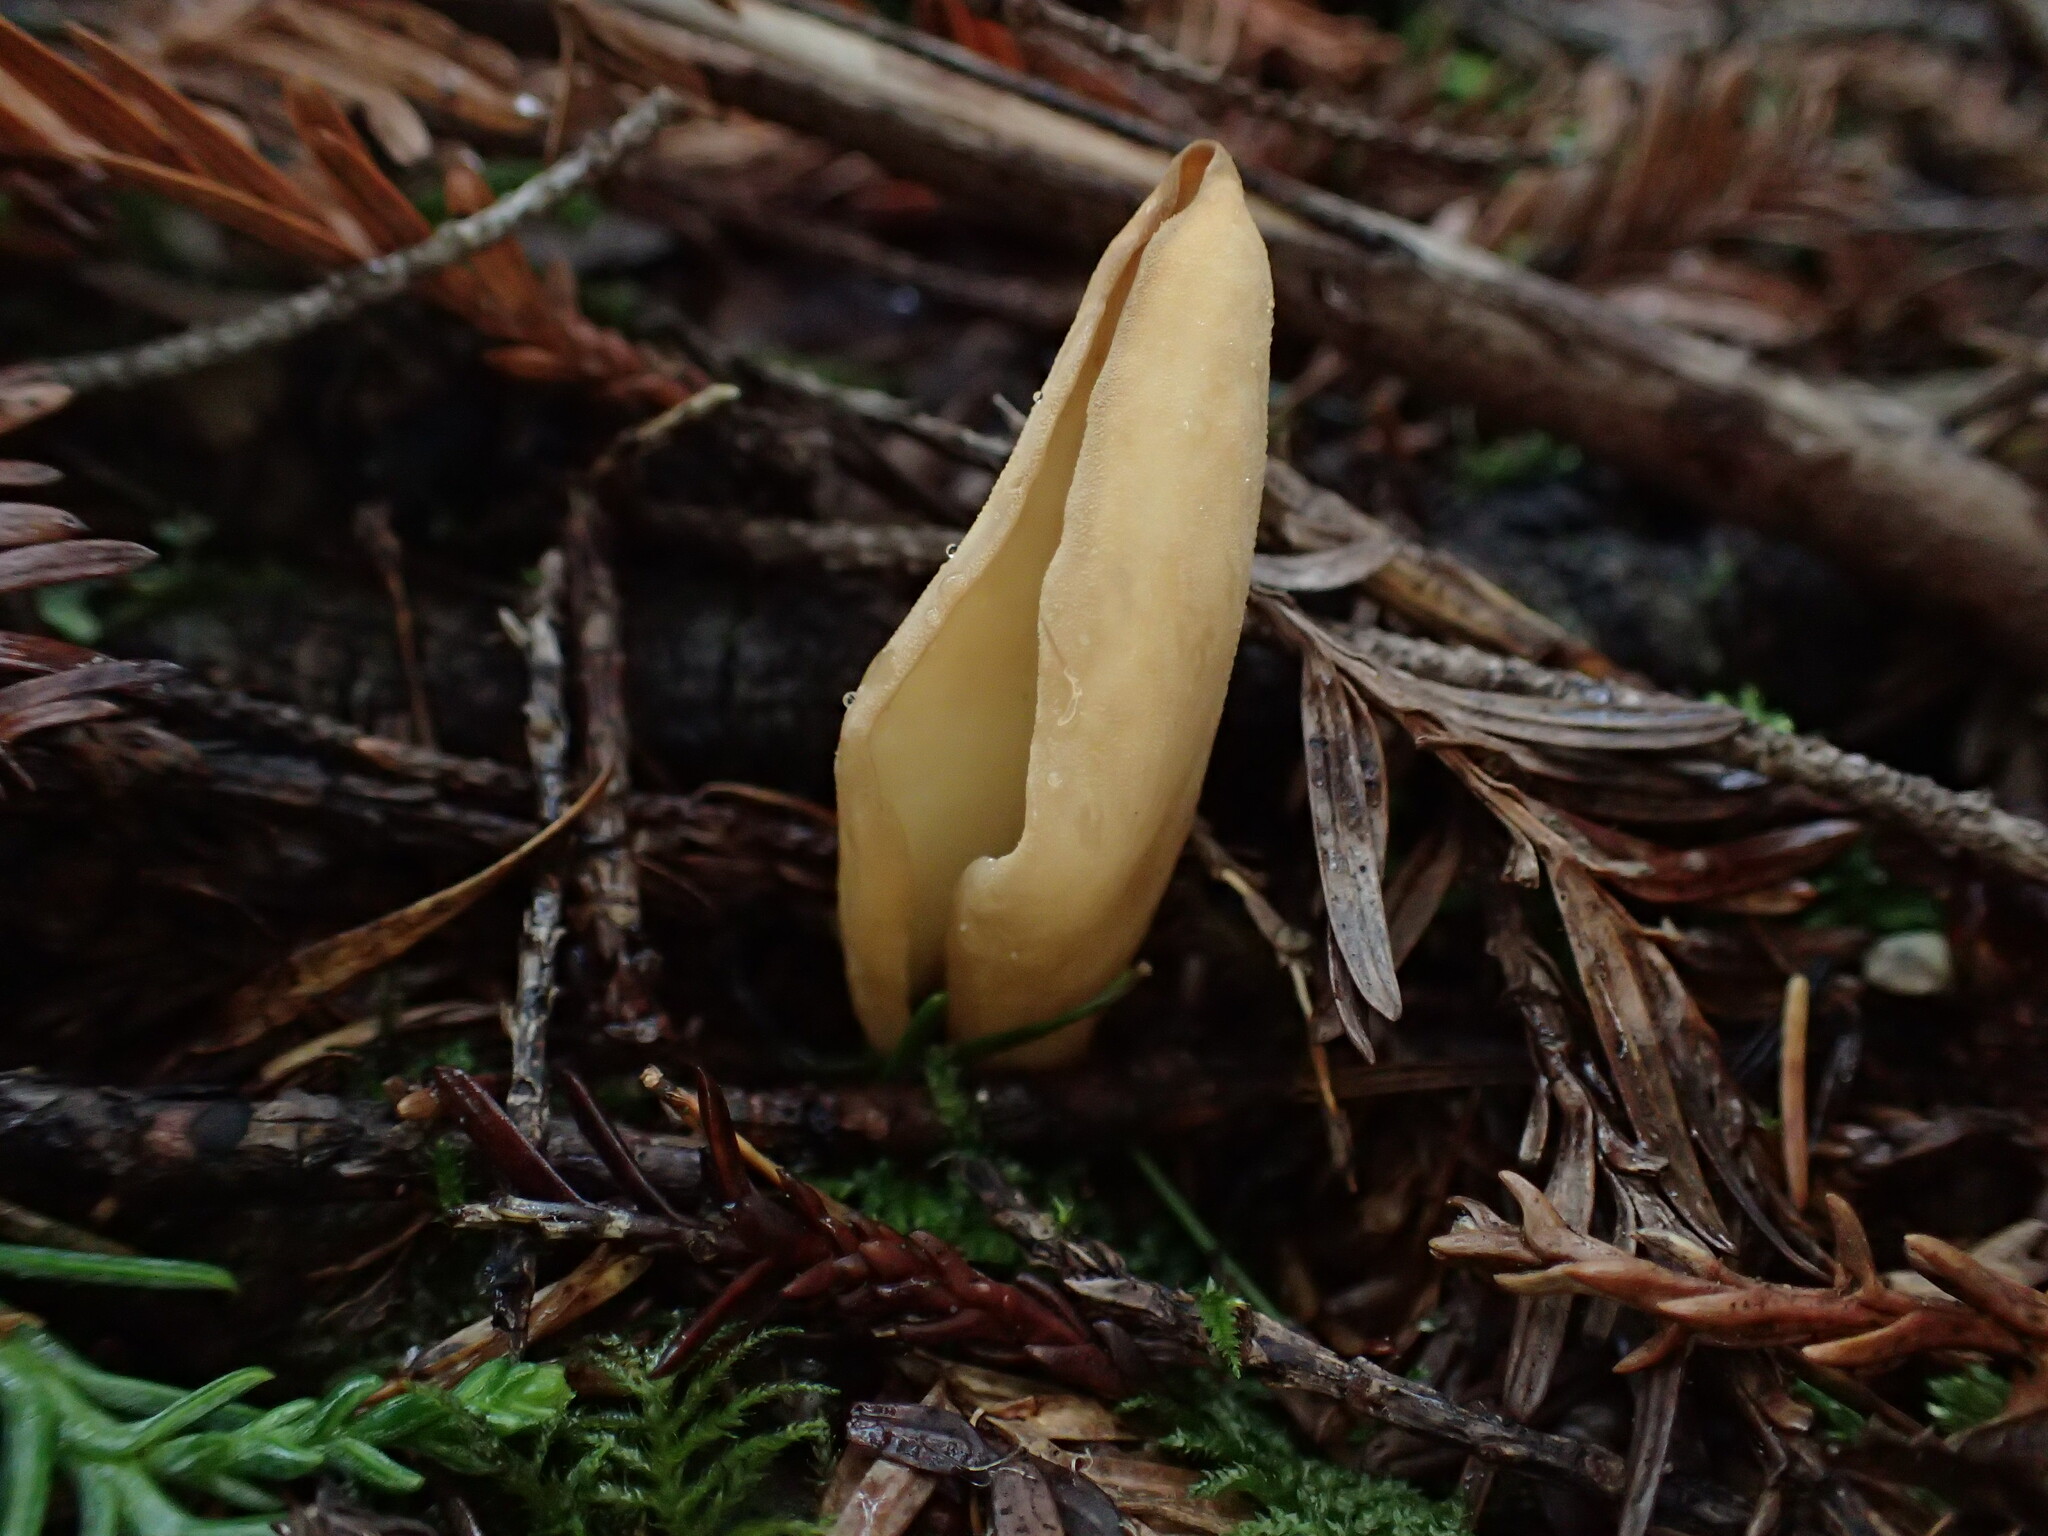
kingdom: Fungi
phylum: Ascomycota
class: Pezizomycetes
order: Pezizales
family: Otideaceae
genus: Otidea
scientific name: Otidea
